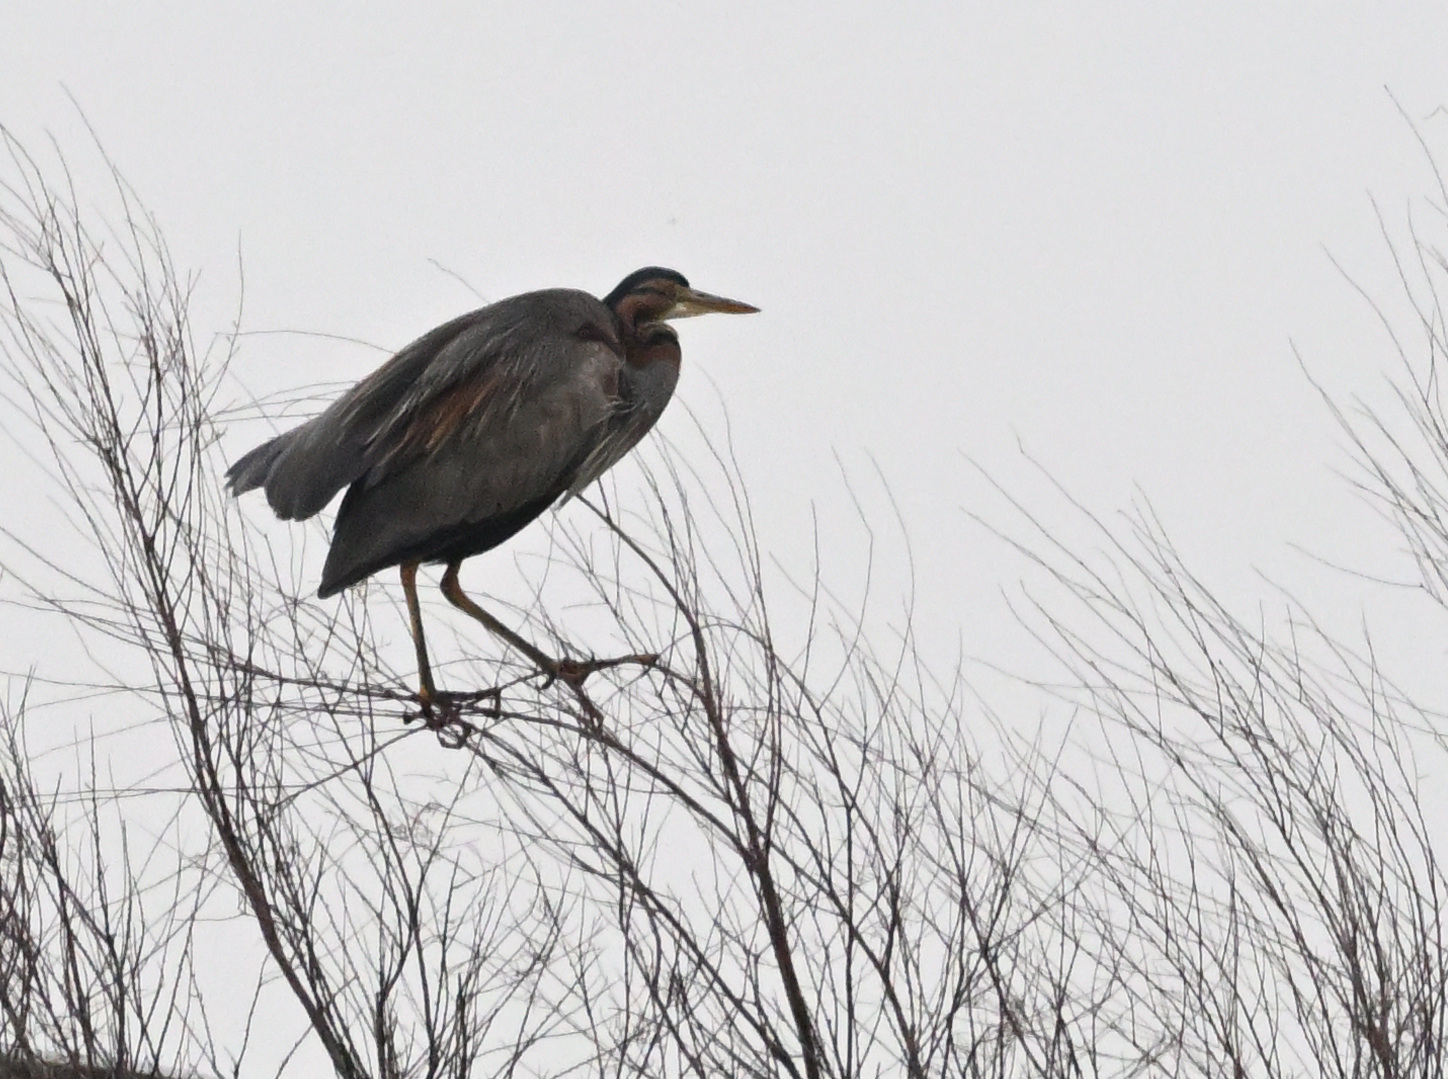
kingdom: Animalia
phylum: Chordata
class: Aves
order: Pelecaniformes
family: Ardeidae
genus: Ardea
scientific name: Ardea purpurea
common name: Purple heron
